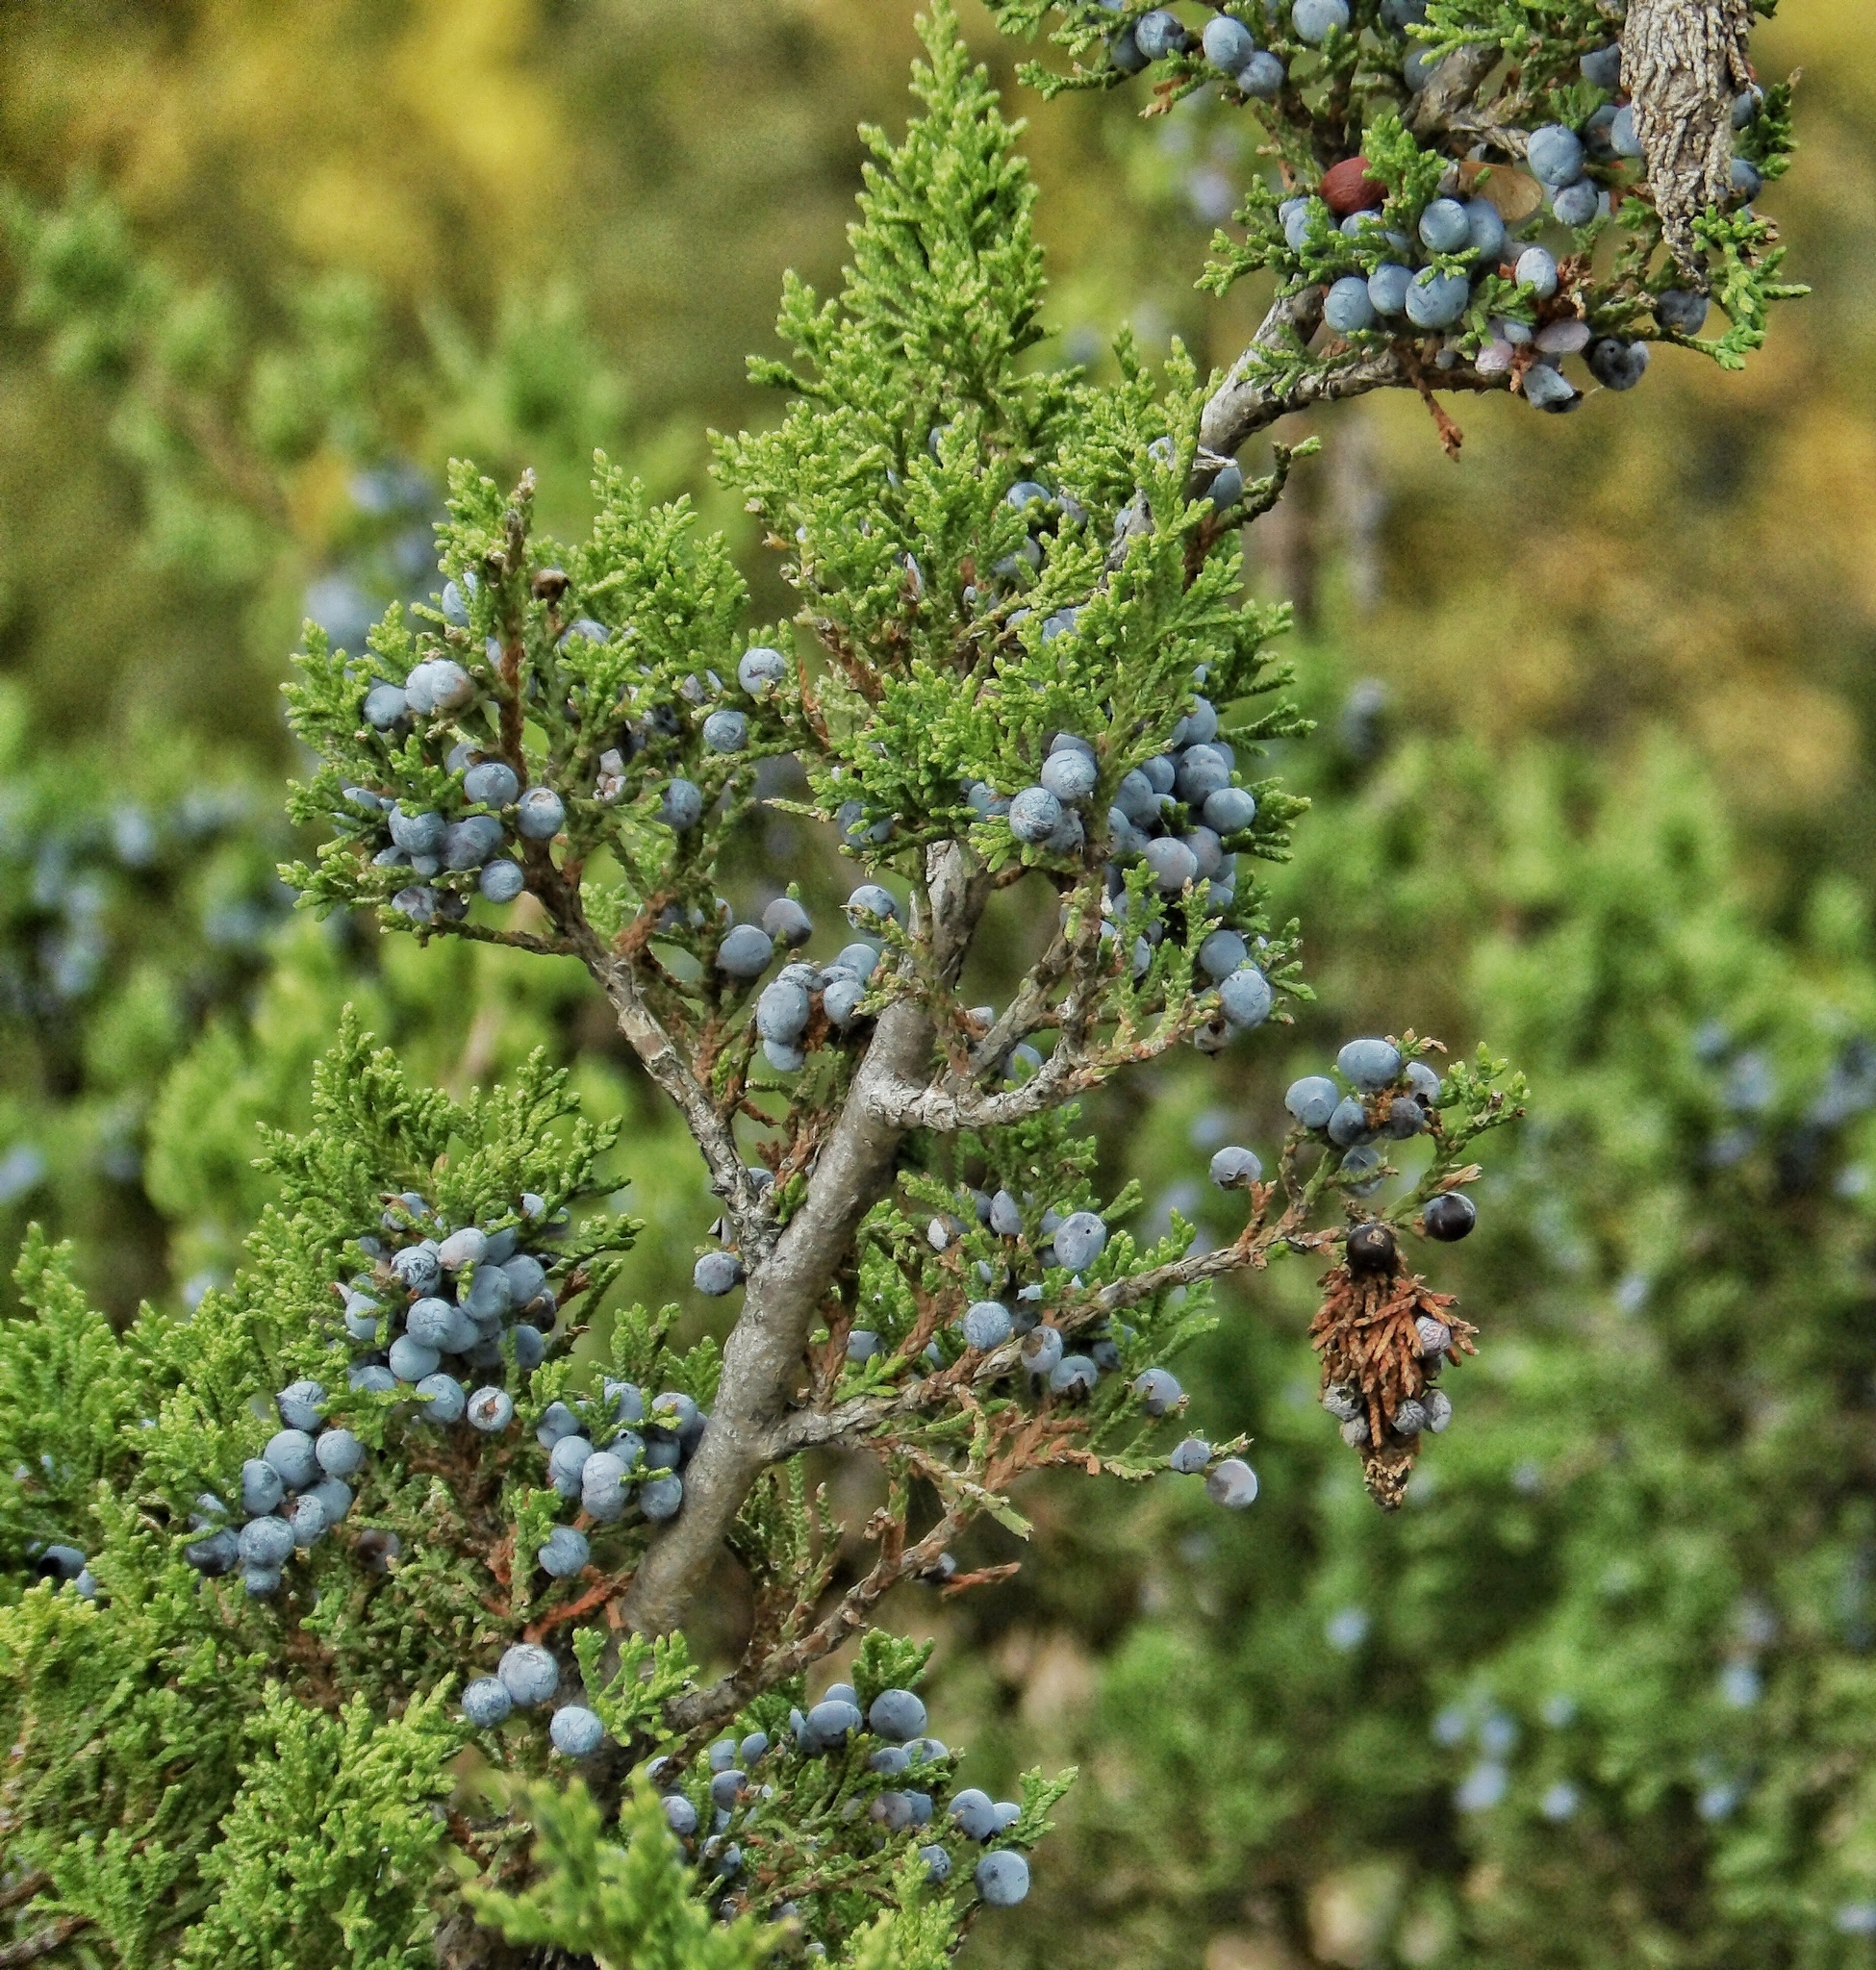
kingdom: Plantae
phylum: Tracheophyta
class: Pinopsida
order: Pinales
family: Cupressaceae
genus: Juniperus
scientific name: Juniperus virginiana
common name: Red juniper
